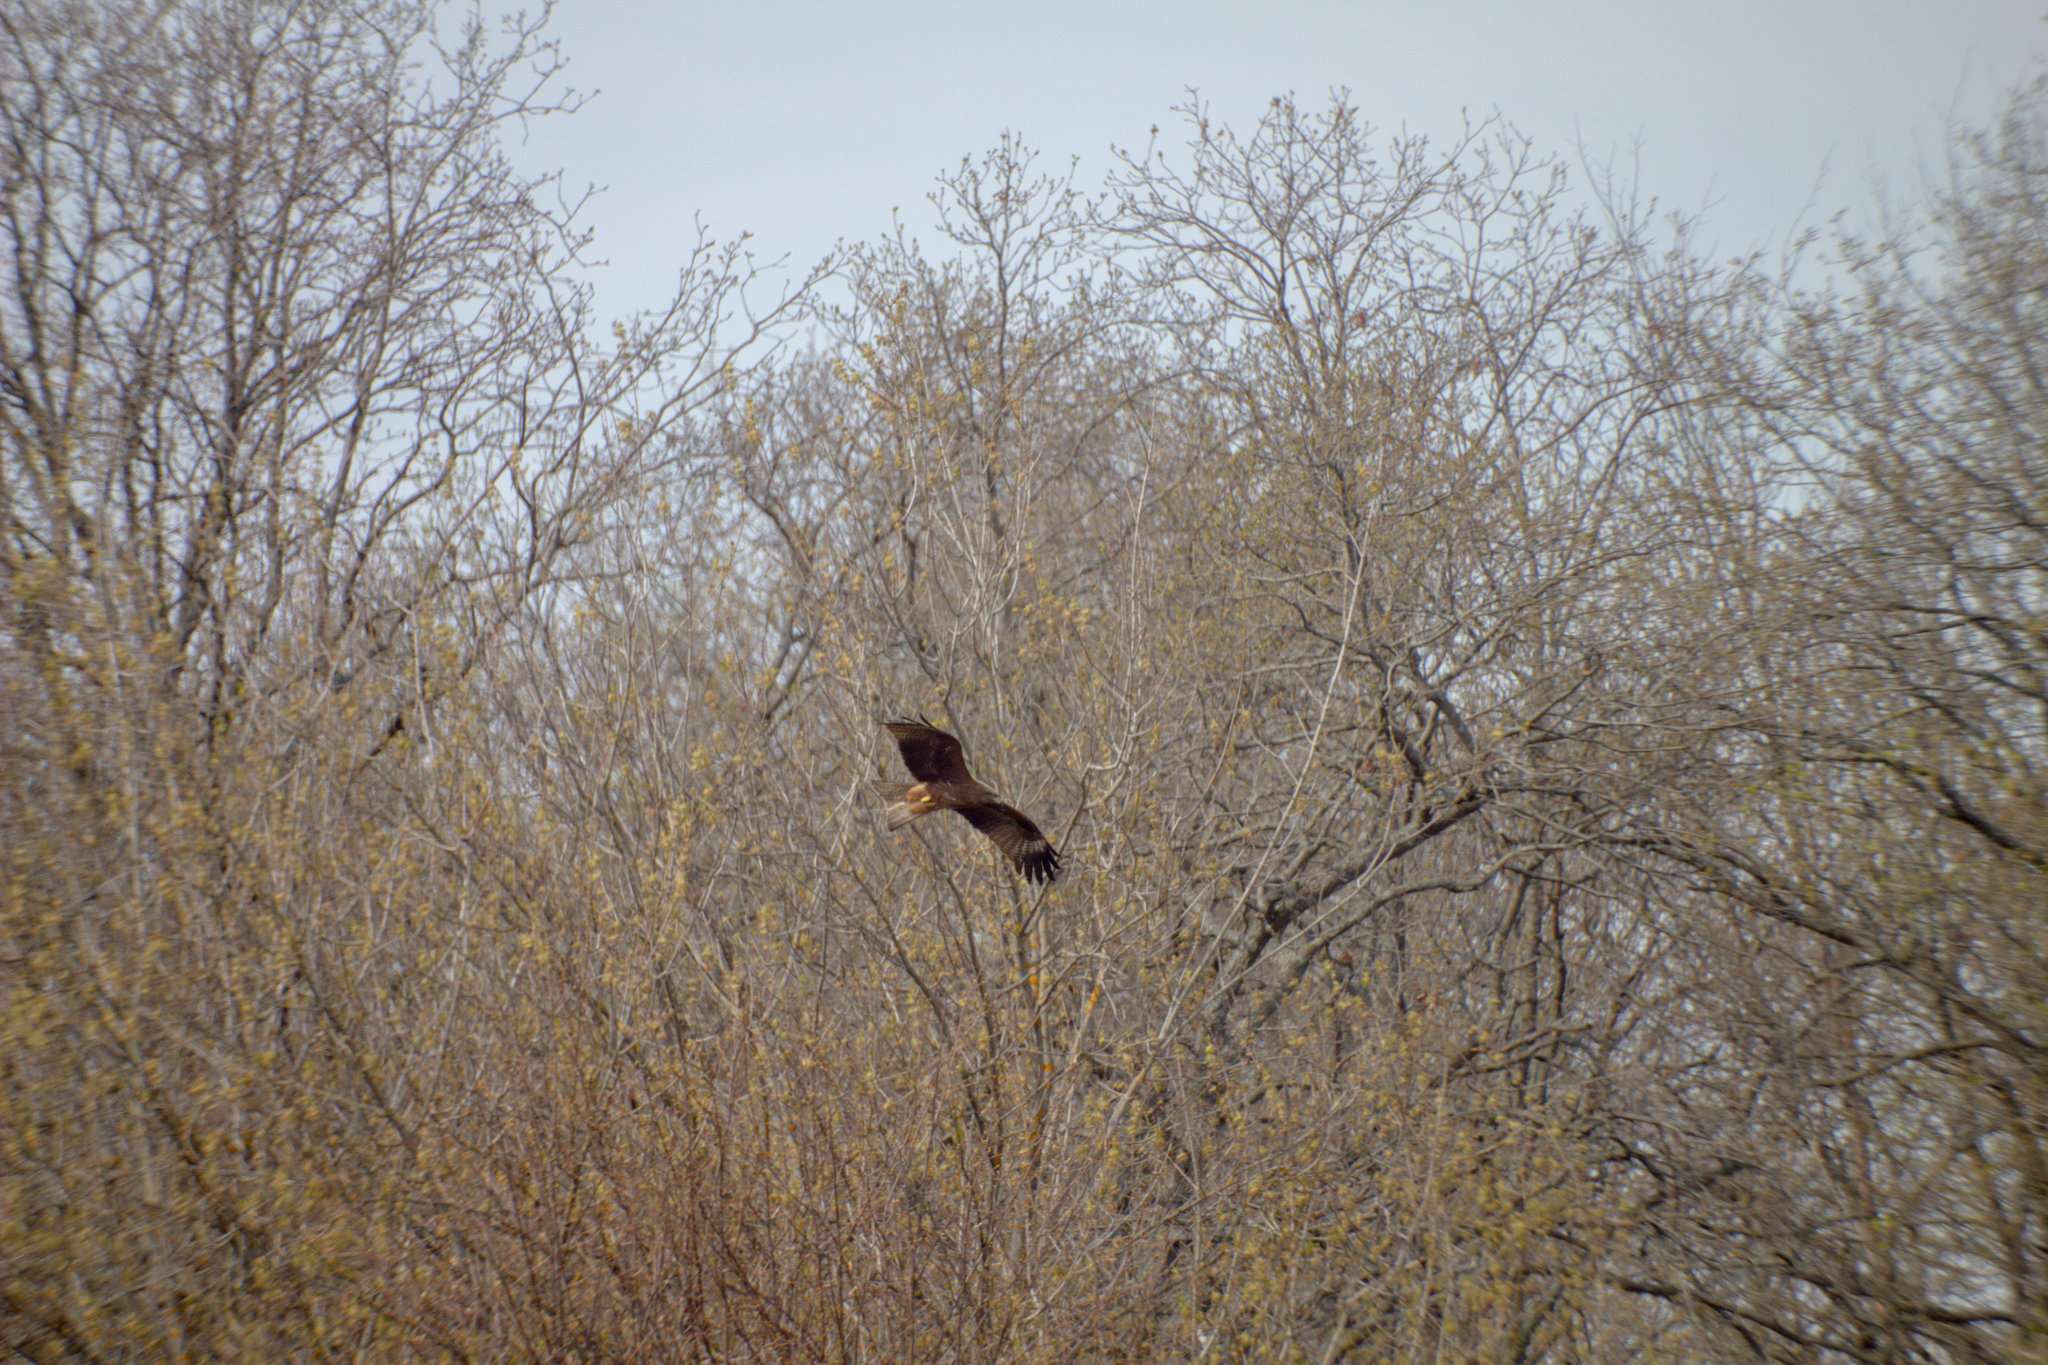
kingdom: Animalia
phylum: Chordata
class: Aves
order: Accipitriformes
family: Accipitridae
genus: Milvus
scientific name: Milvus migrans
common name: Black kite
